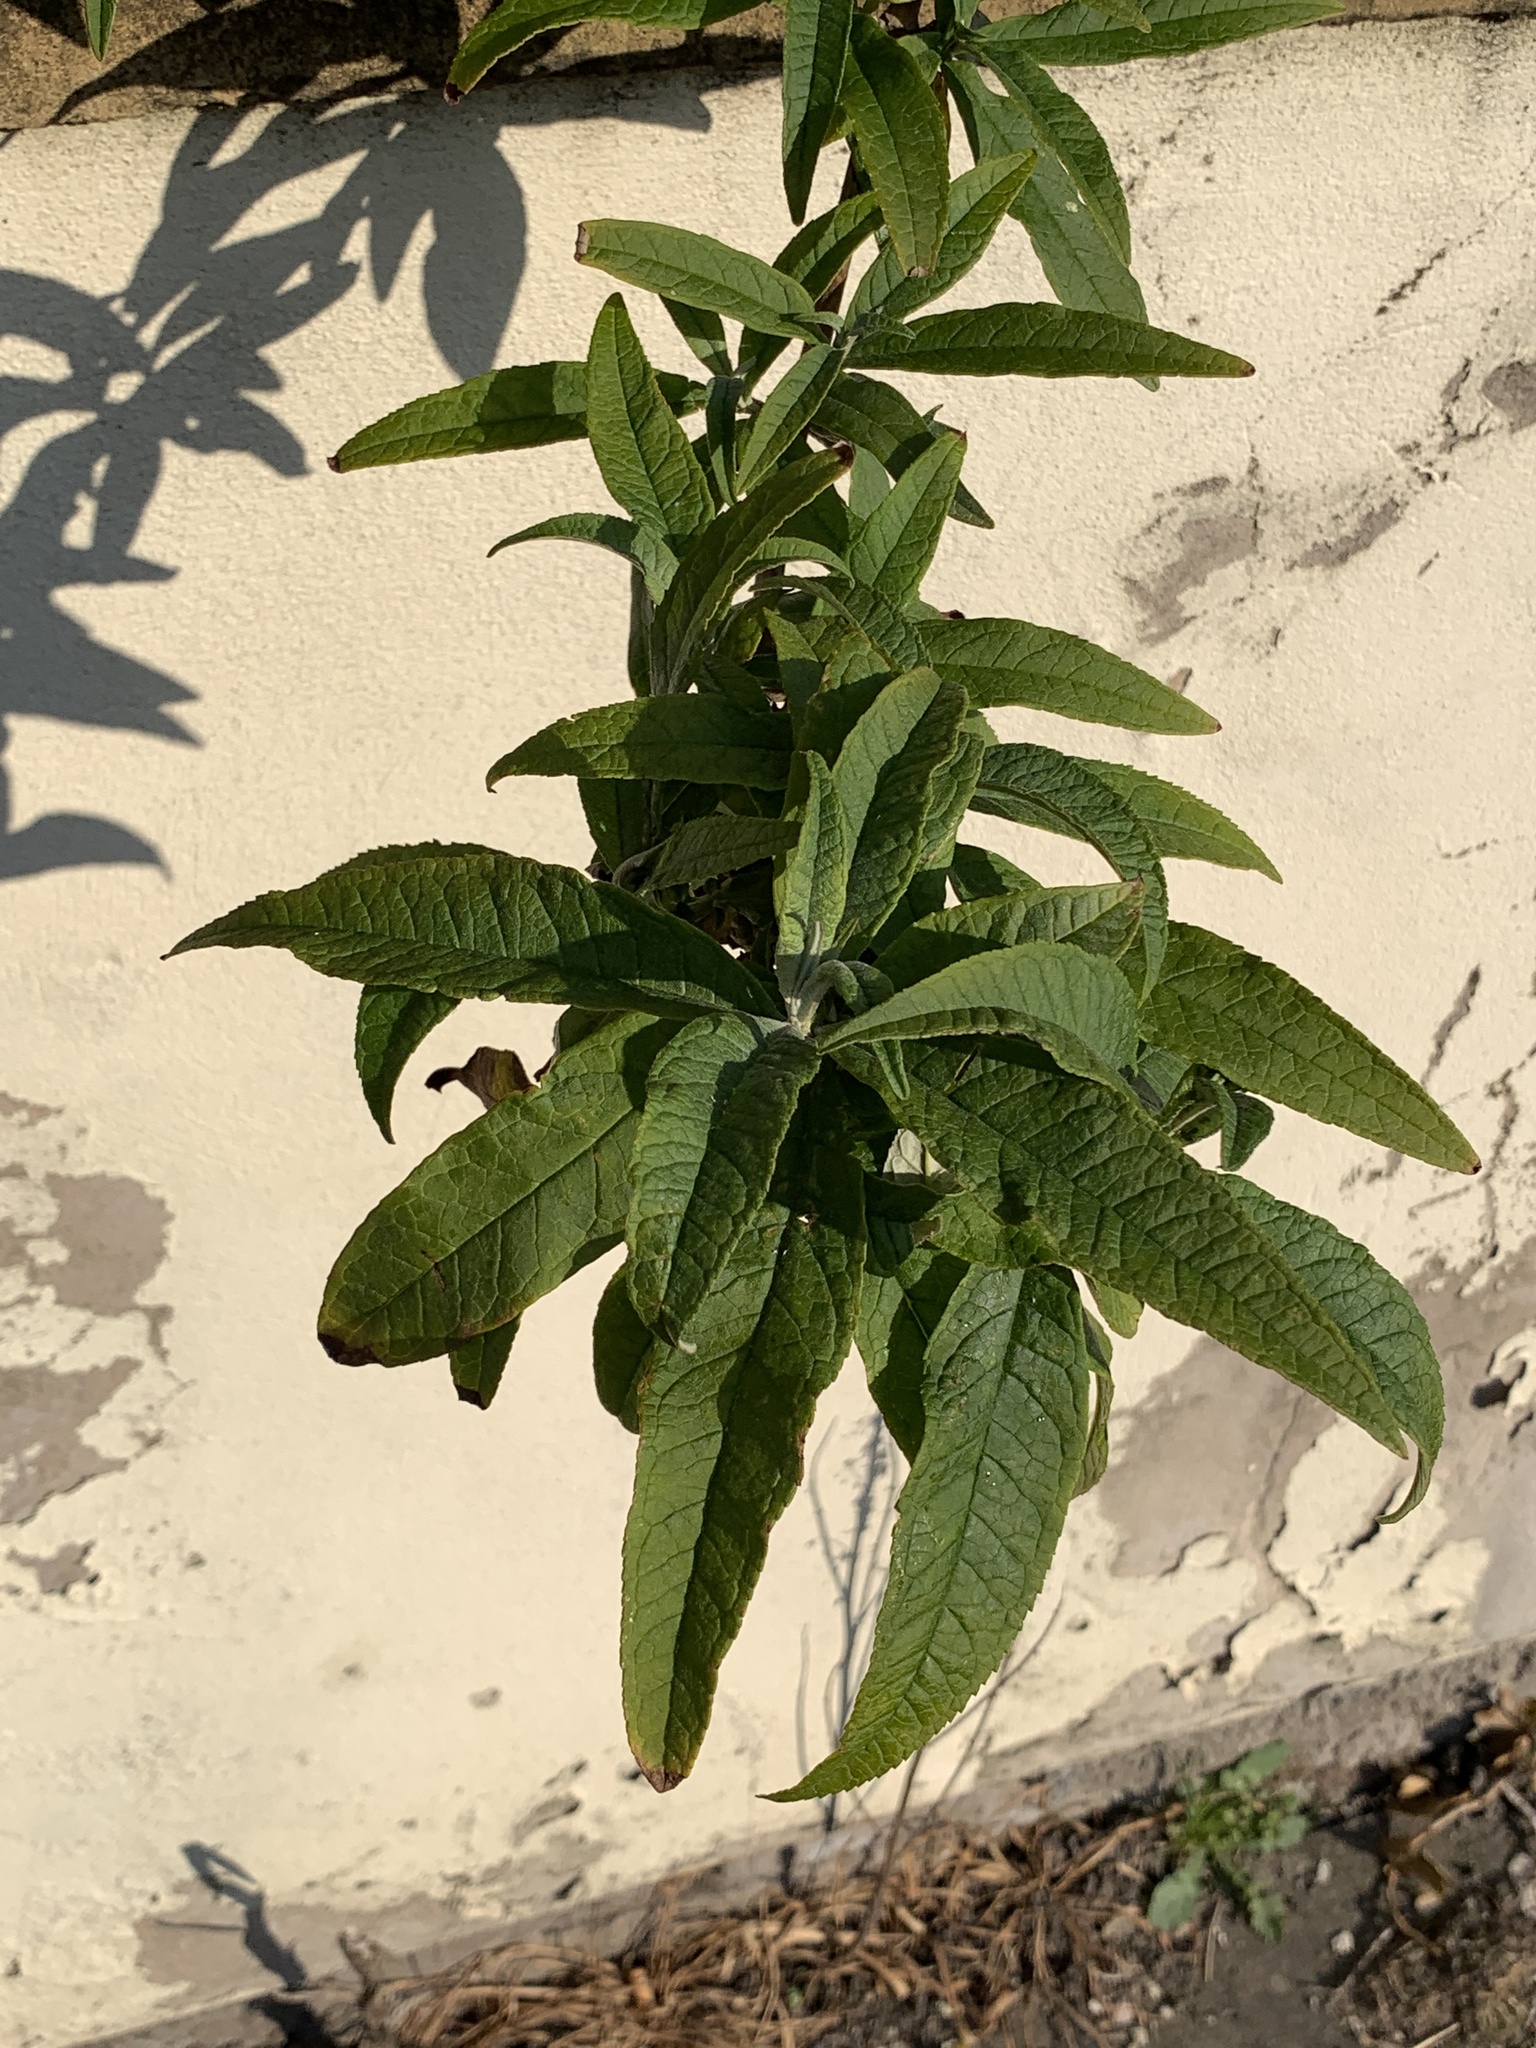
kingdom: Plantae
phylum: Tracheophyta
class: Magnoliopsida
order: Lamiales
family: Scrophulariaceae
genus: Buddleja
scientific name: Buddleja davidii
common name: Butterfly-bush
